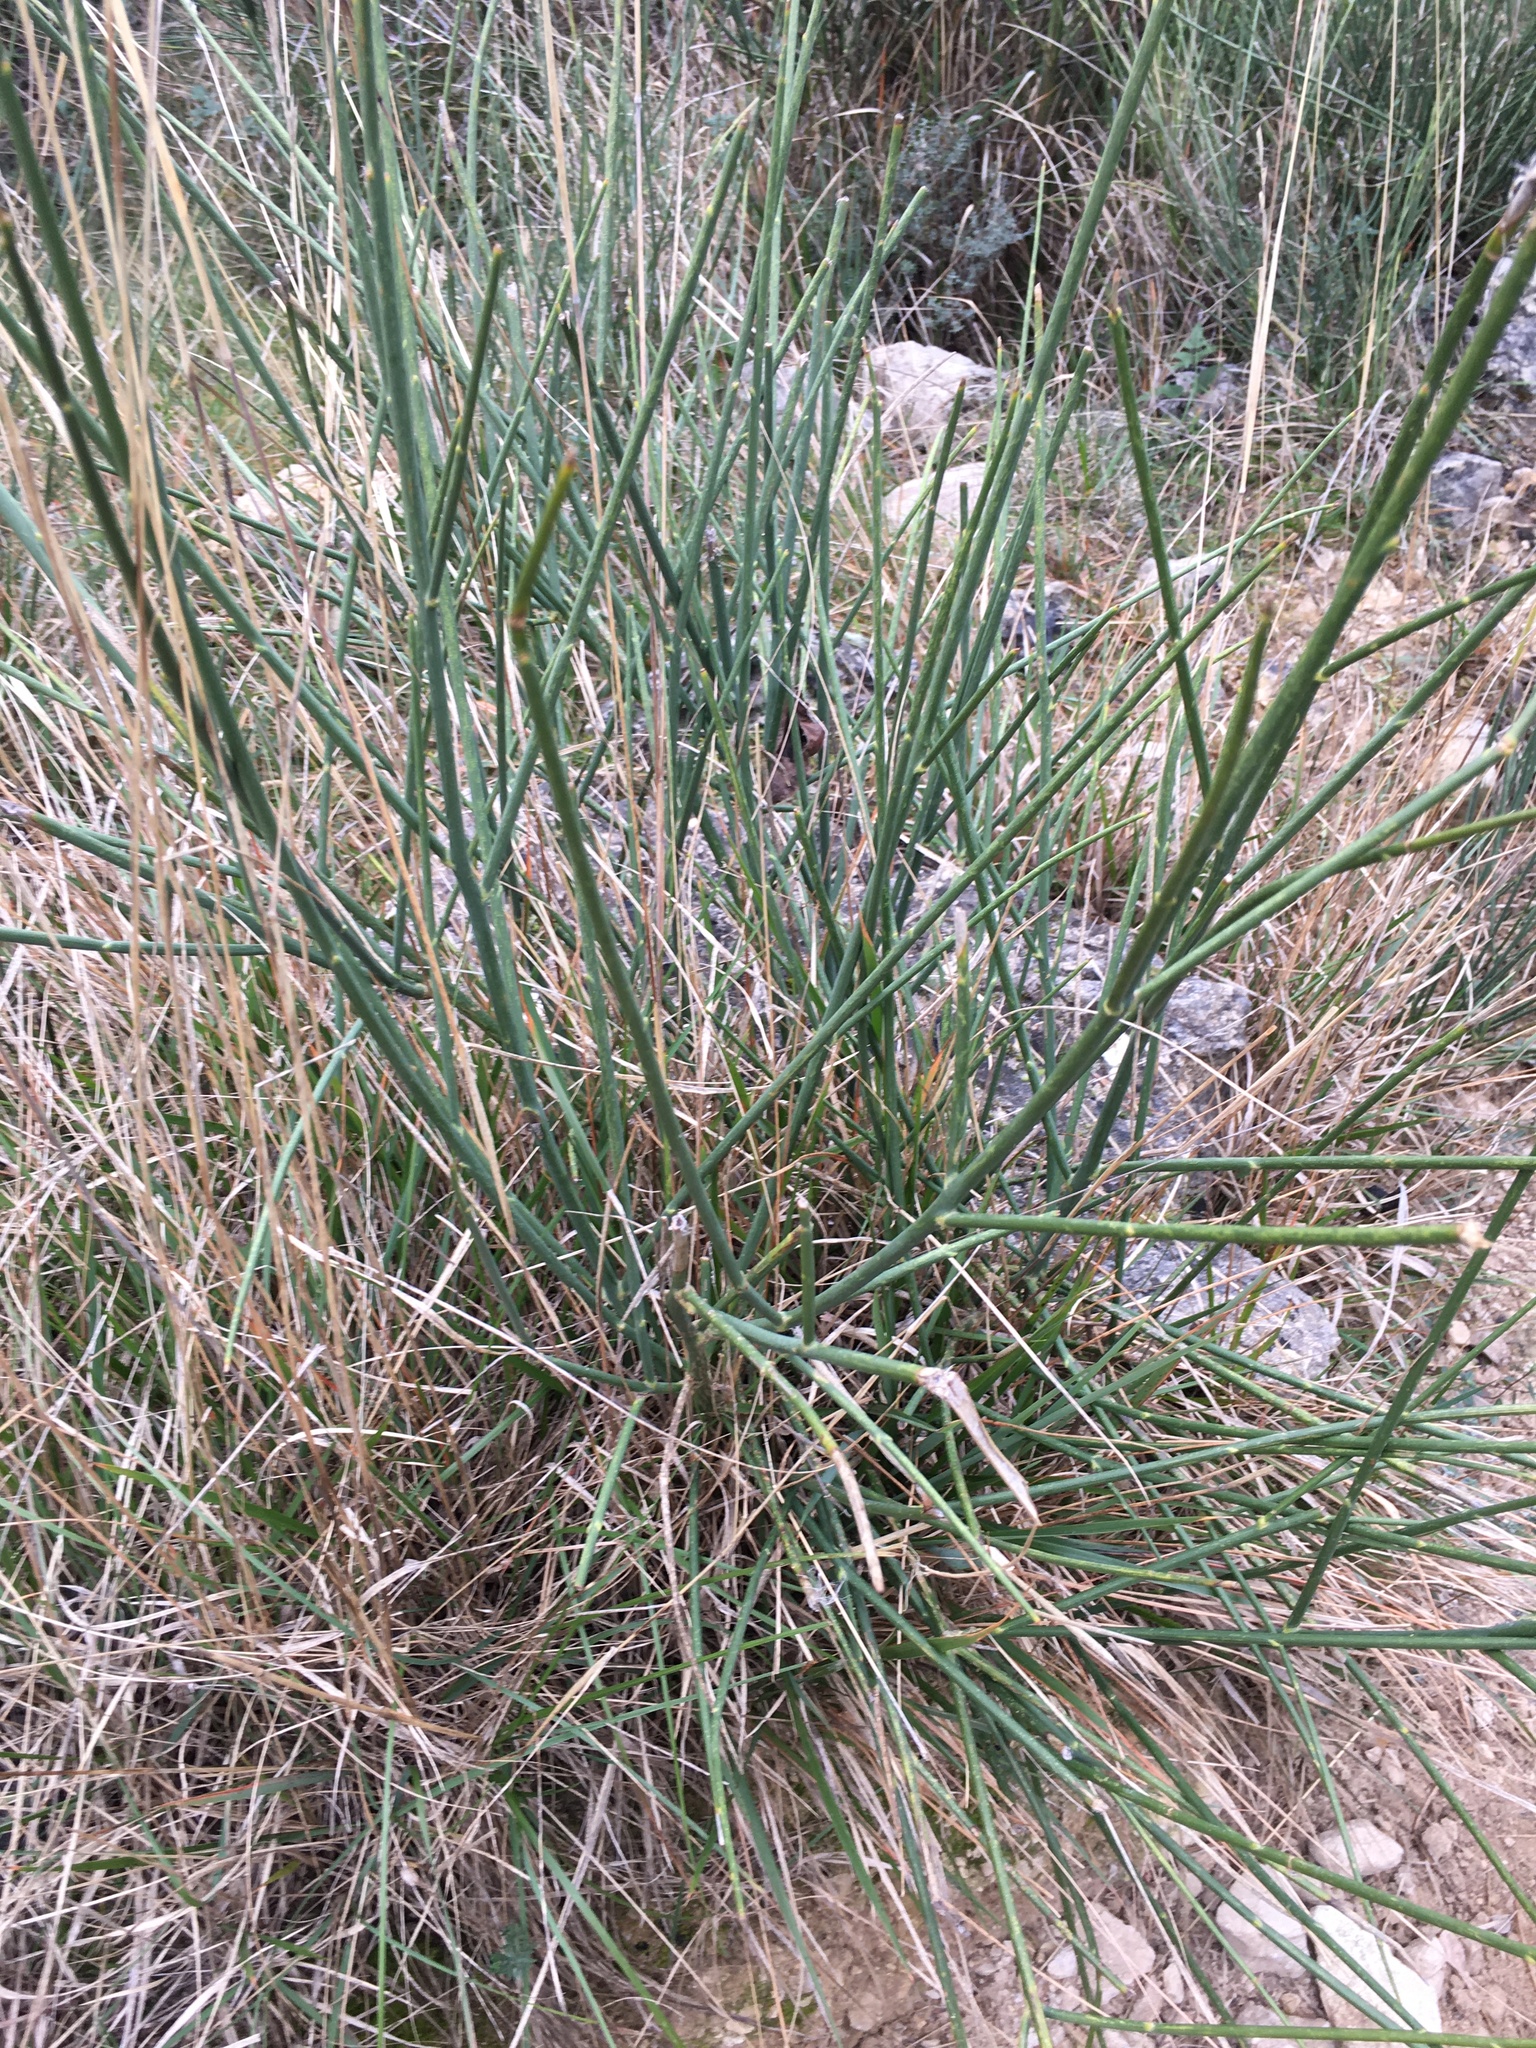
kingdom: Plantae
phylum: Tracheophyta
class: Magnoliopsida
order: Fabales
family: Fabaceae
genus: Spartium
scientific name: Spartium junceum
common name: Spanish broom
